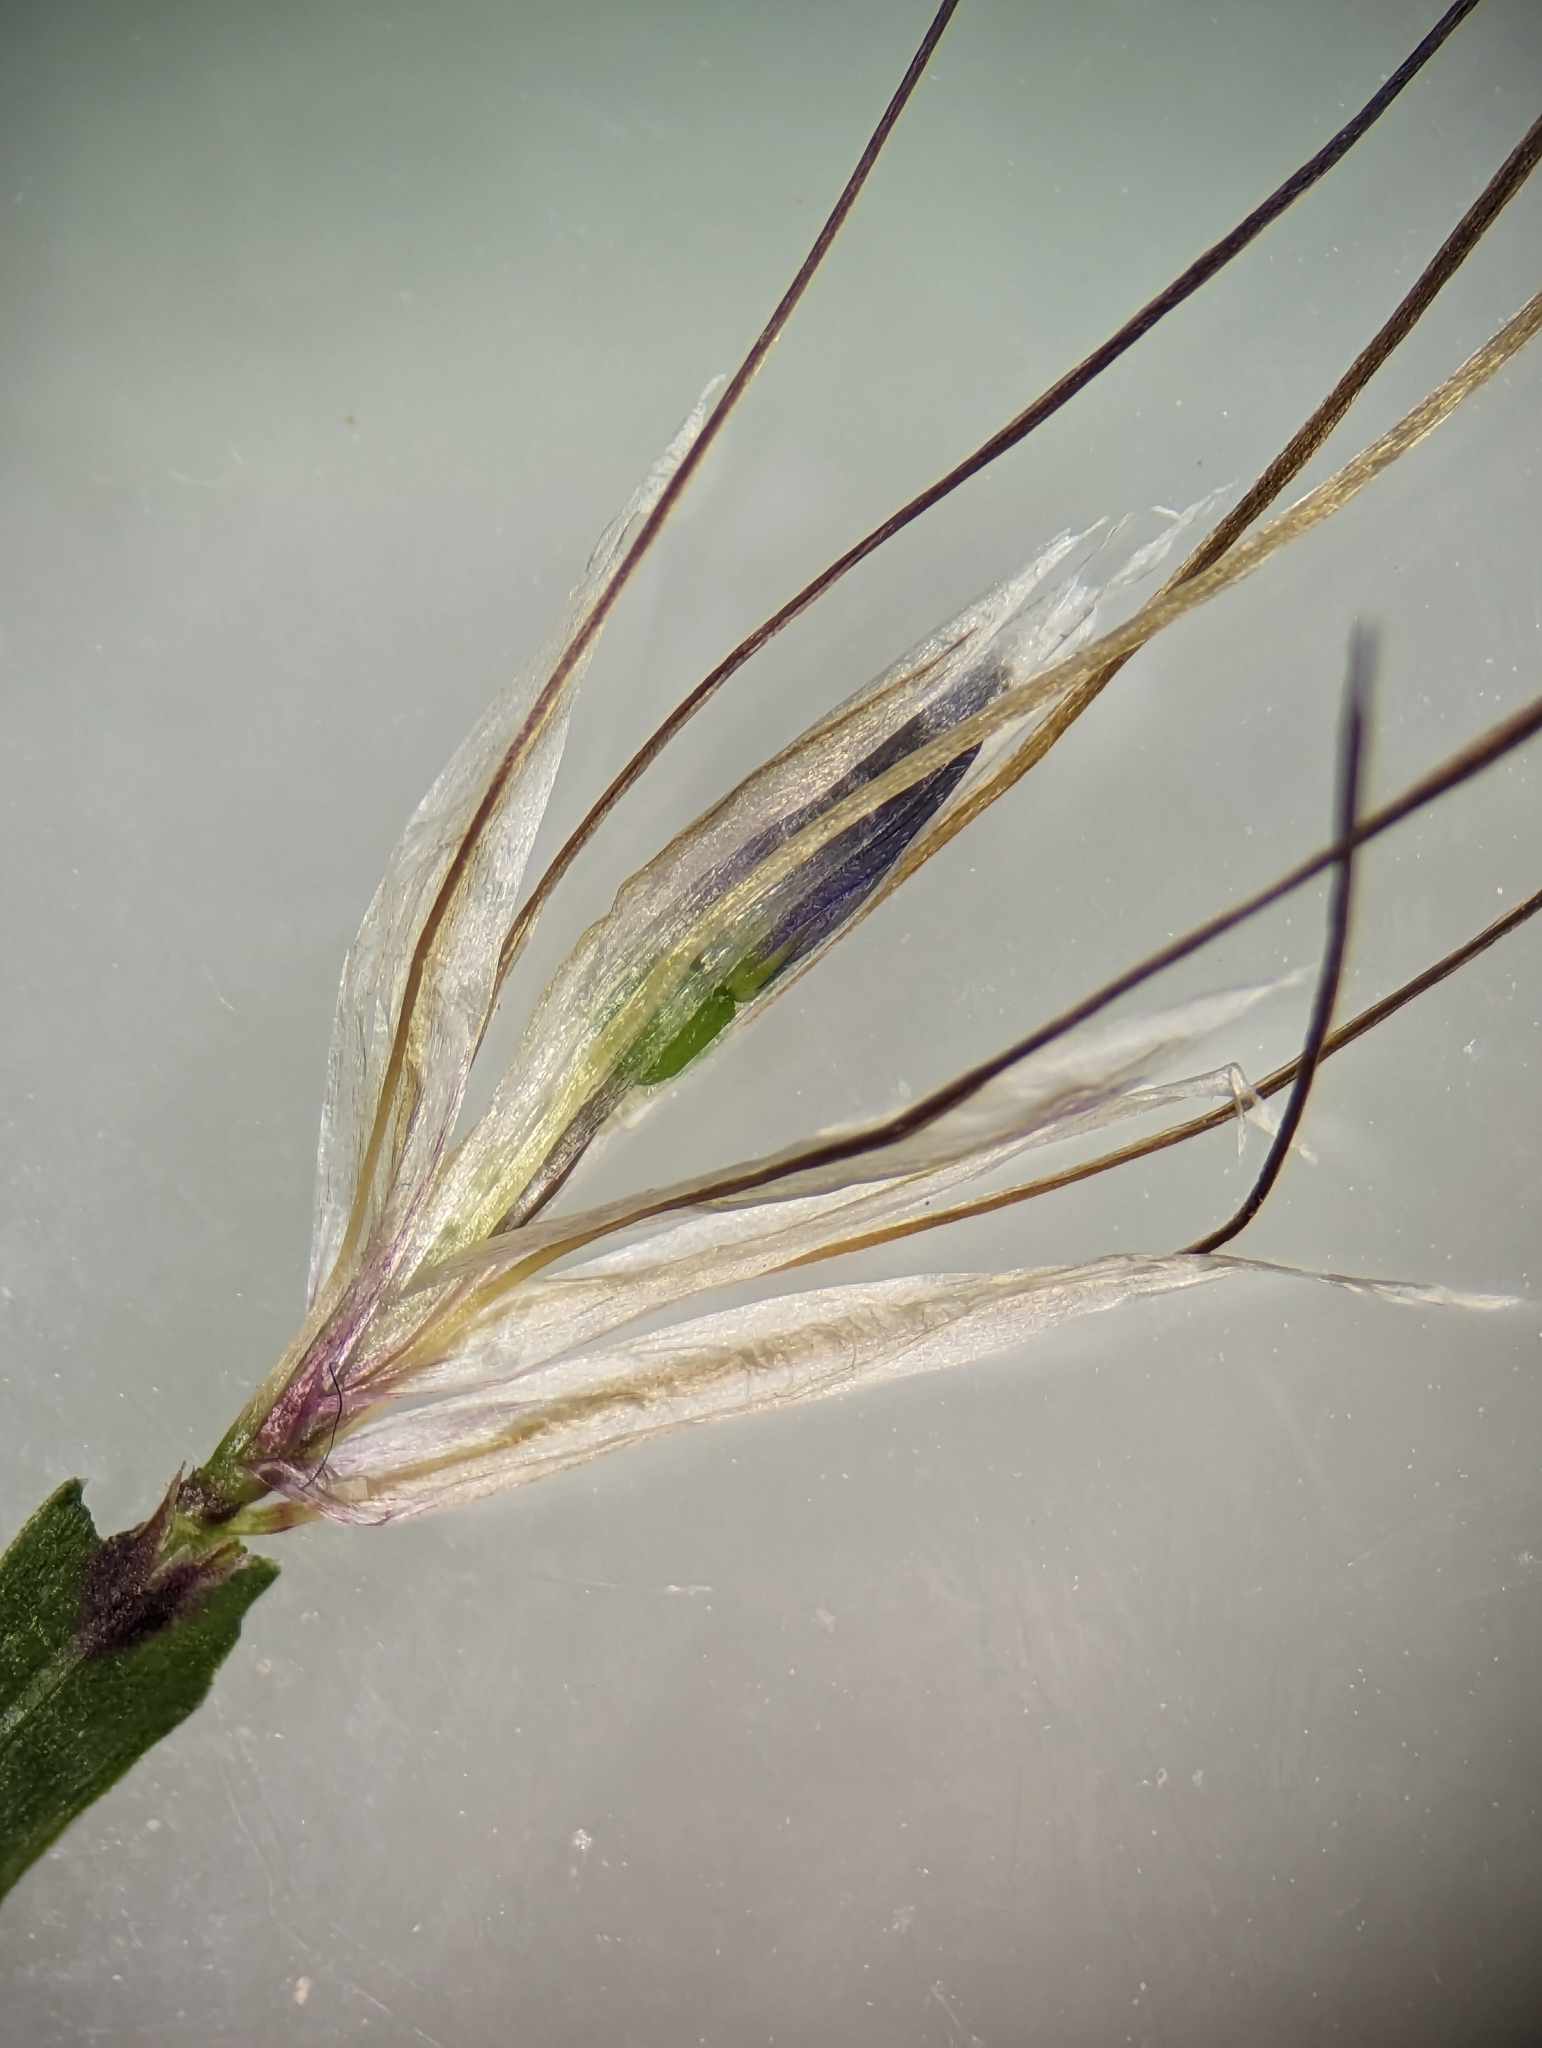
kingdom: Plantae
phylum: Tracheophyta
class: Liliopsida
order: Asparagales
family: Iridaceae
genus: Sisyrinchium
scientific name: Sisyrinchium mucronatum
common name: Eastern blue-eyed-grass
